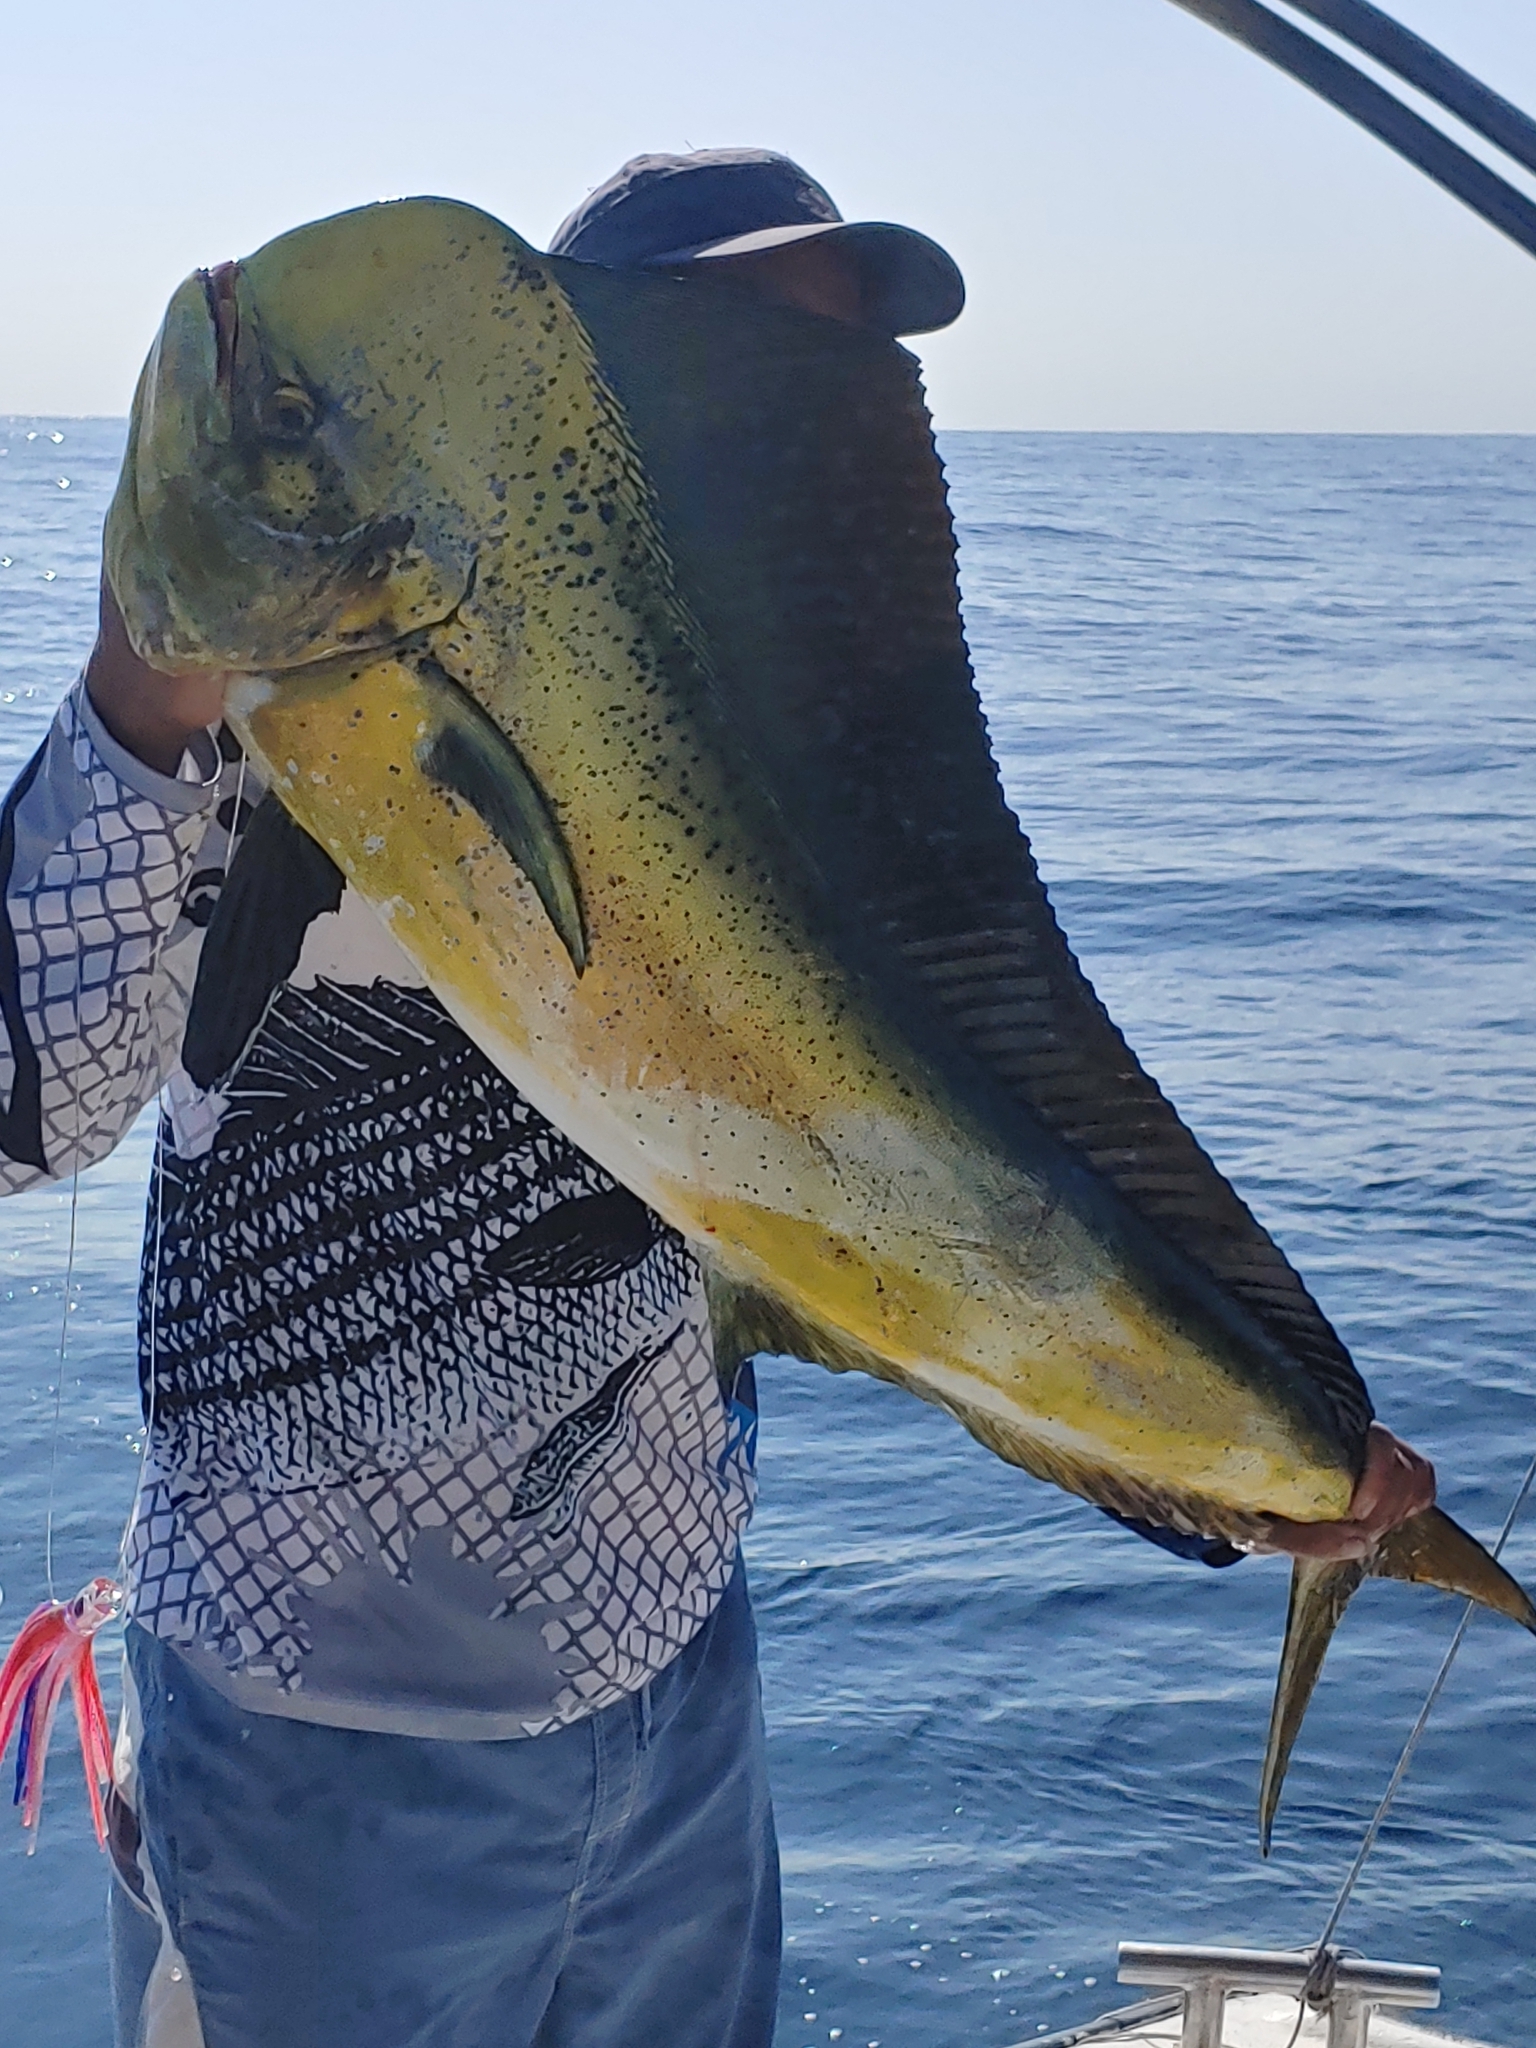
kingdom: Animalia
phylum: Chordata
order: Perciformes
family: Coryphaenidae
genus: Coryphaena
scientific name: Coryphaena hippurus
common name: Dolphin
